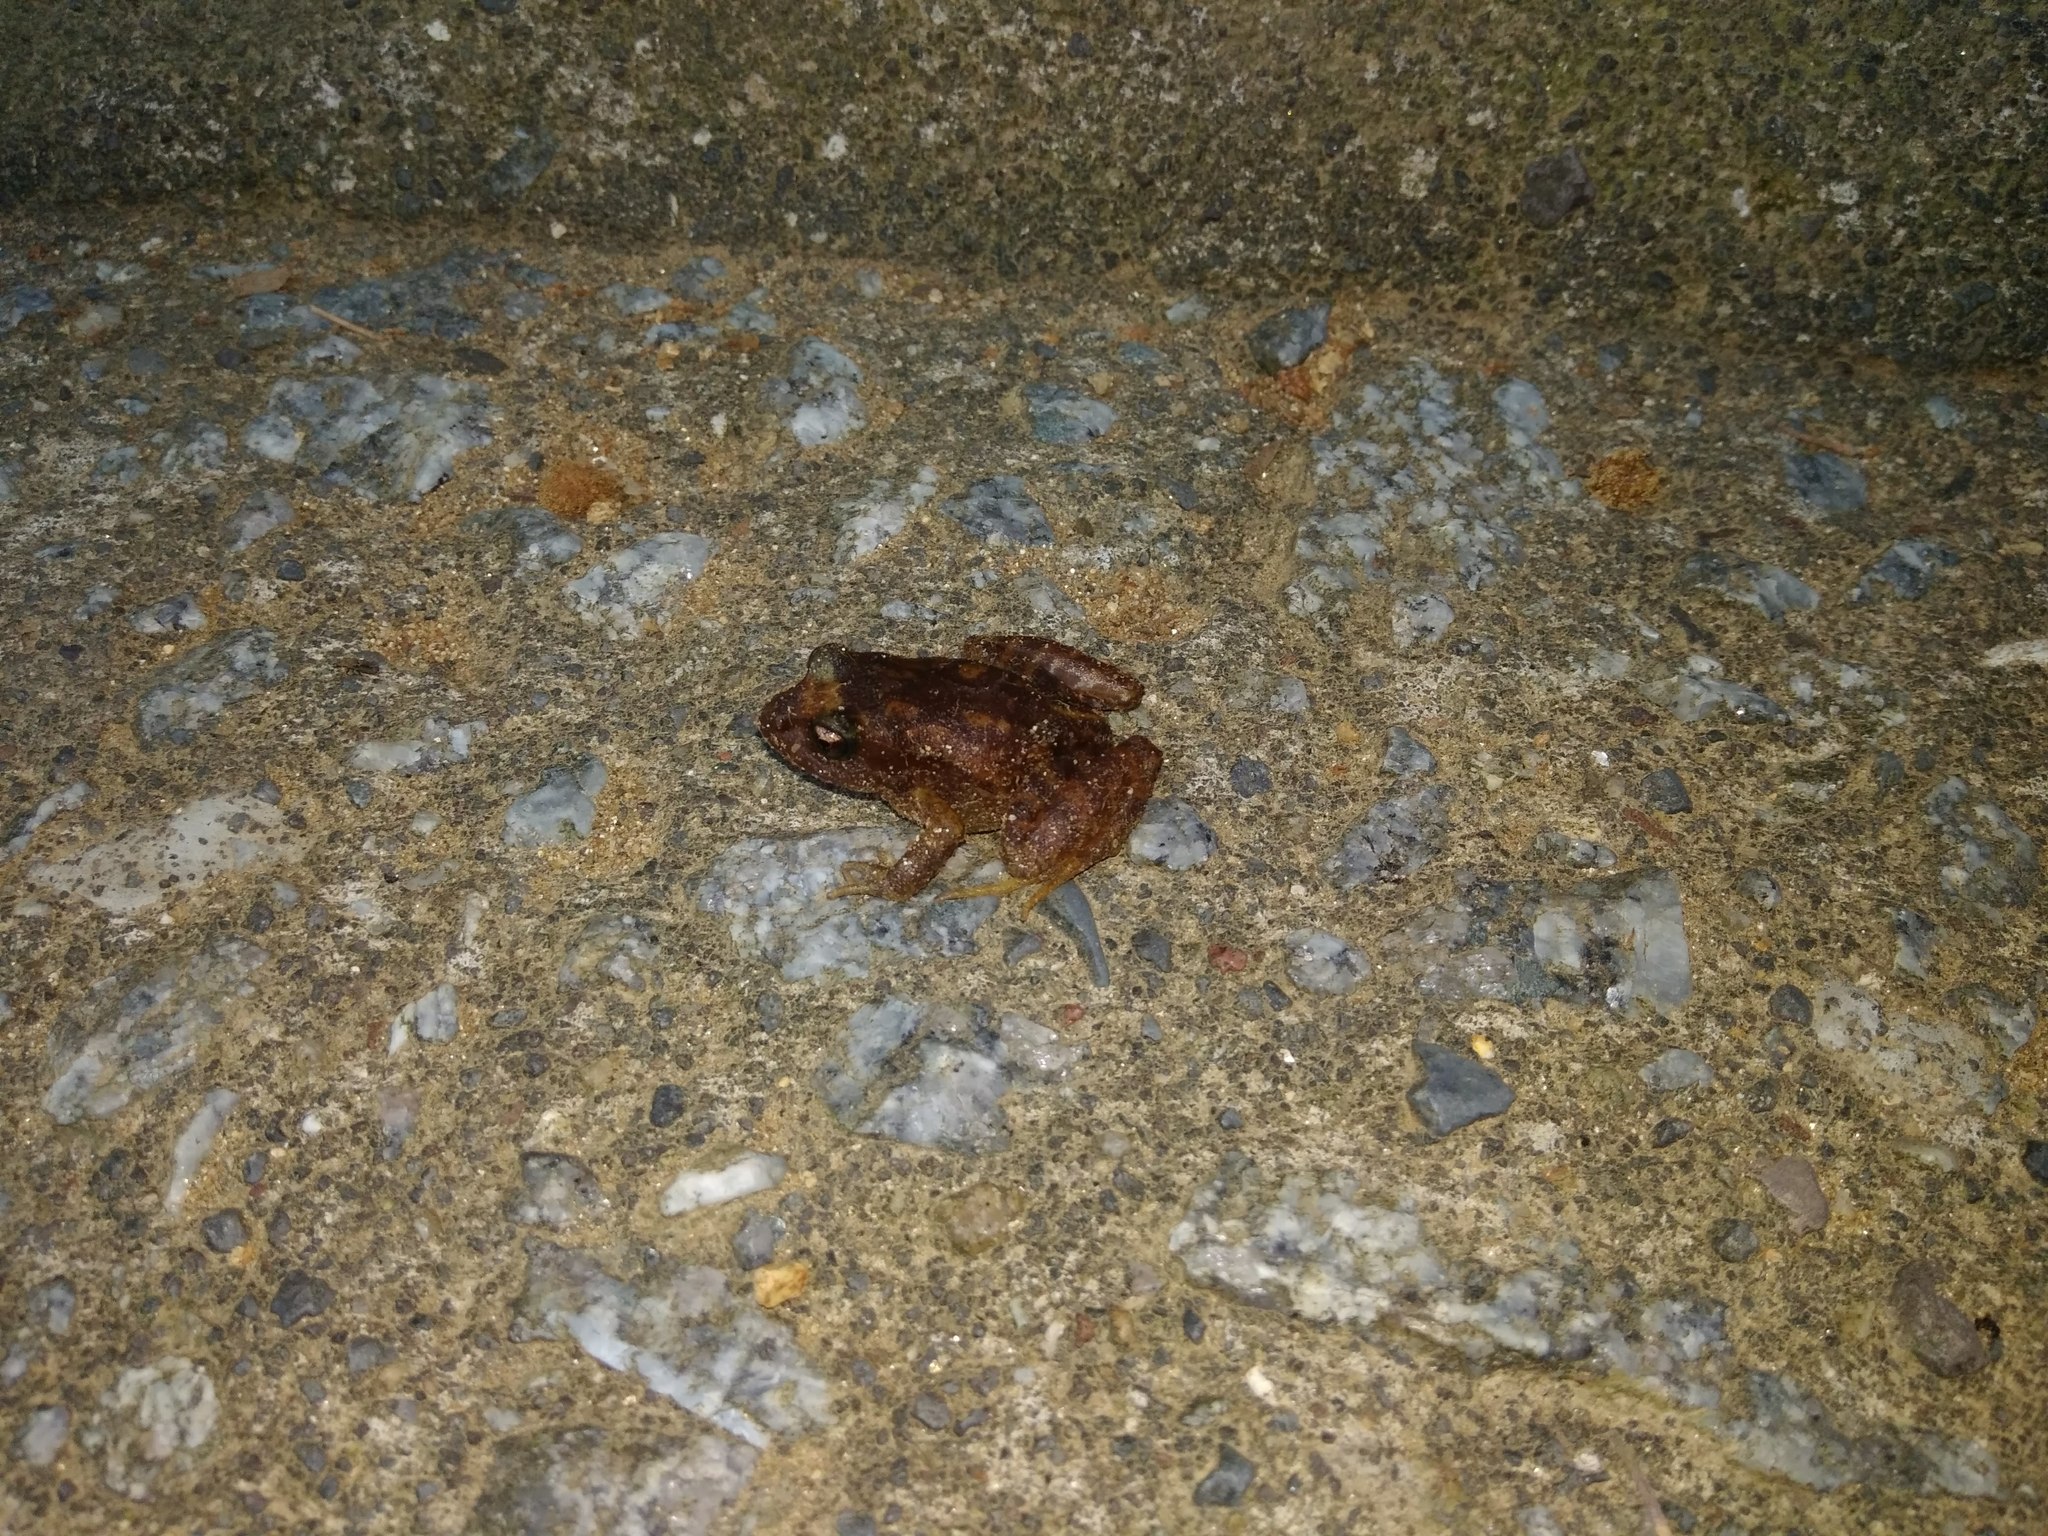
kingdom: Animalia
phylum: Chordata
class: Amphibia
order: Anura
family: Alsodidae
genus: Eupsophus
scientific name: Eupsophus roseus
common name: Rosy ground frog
